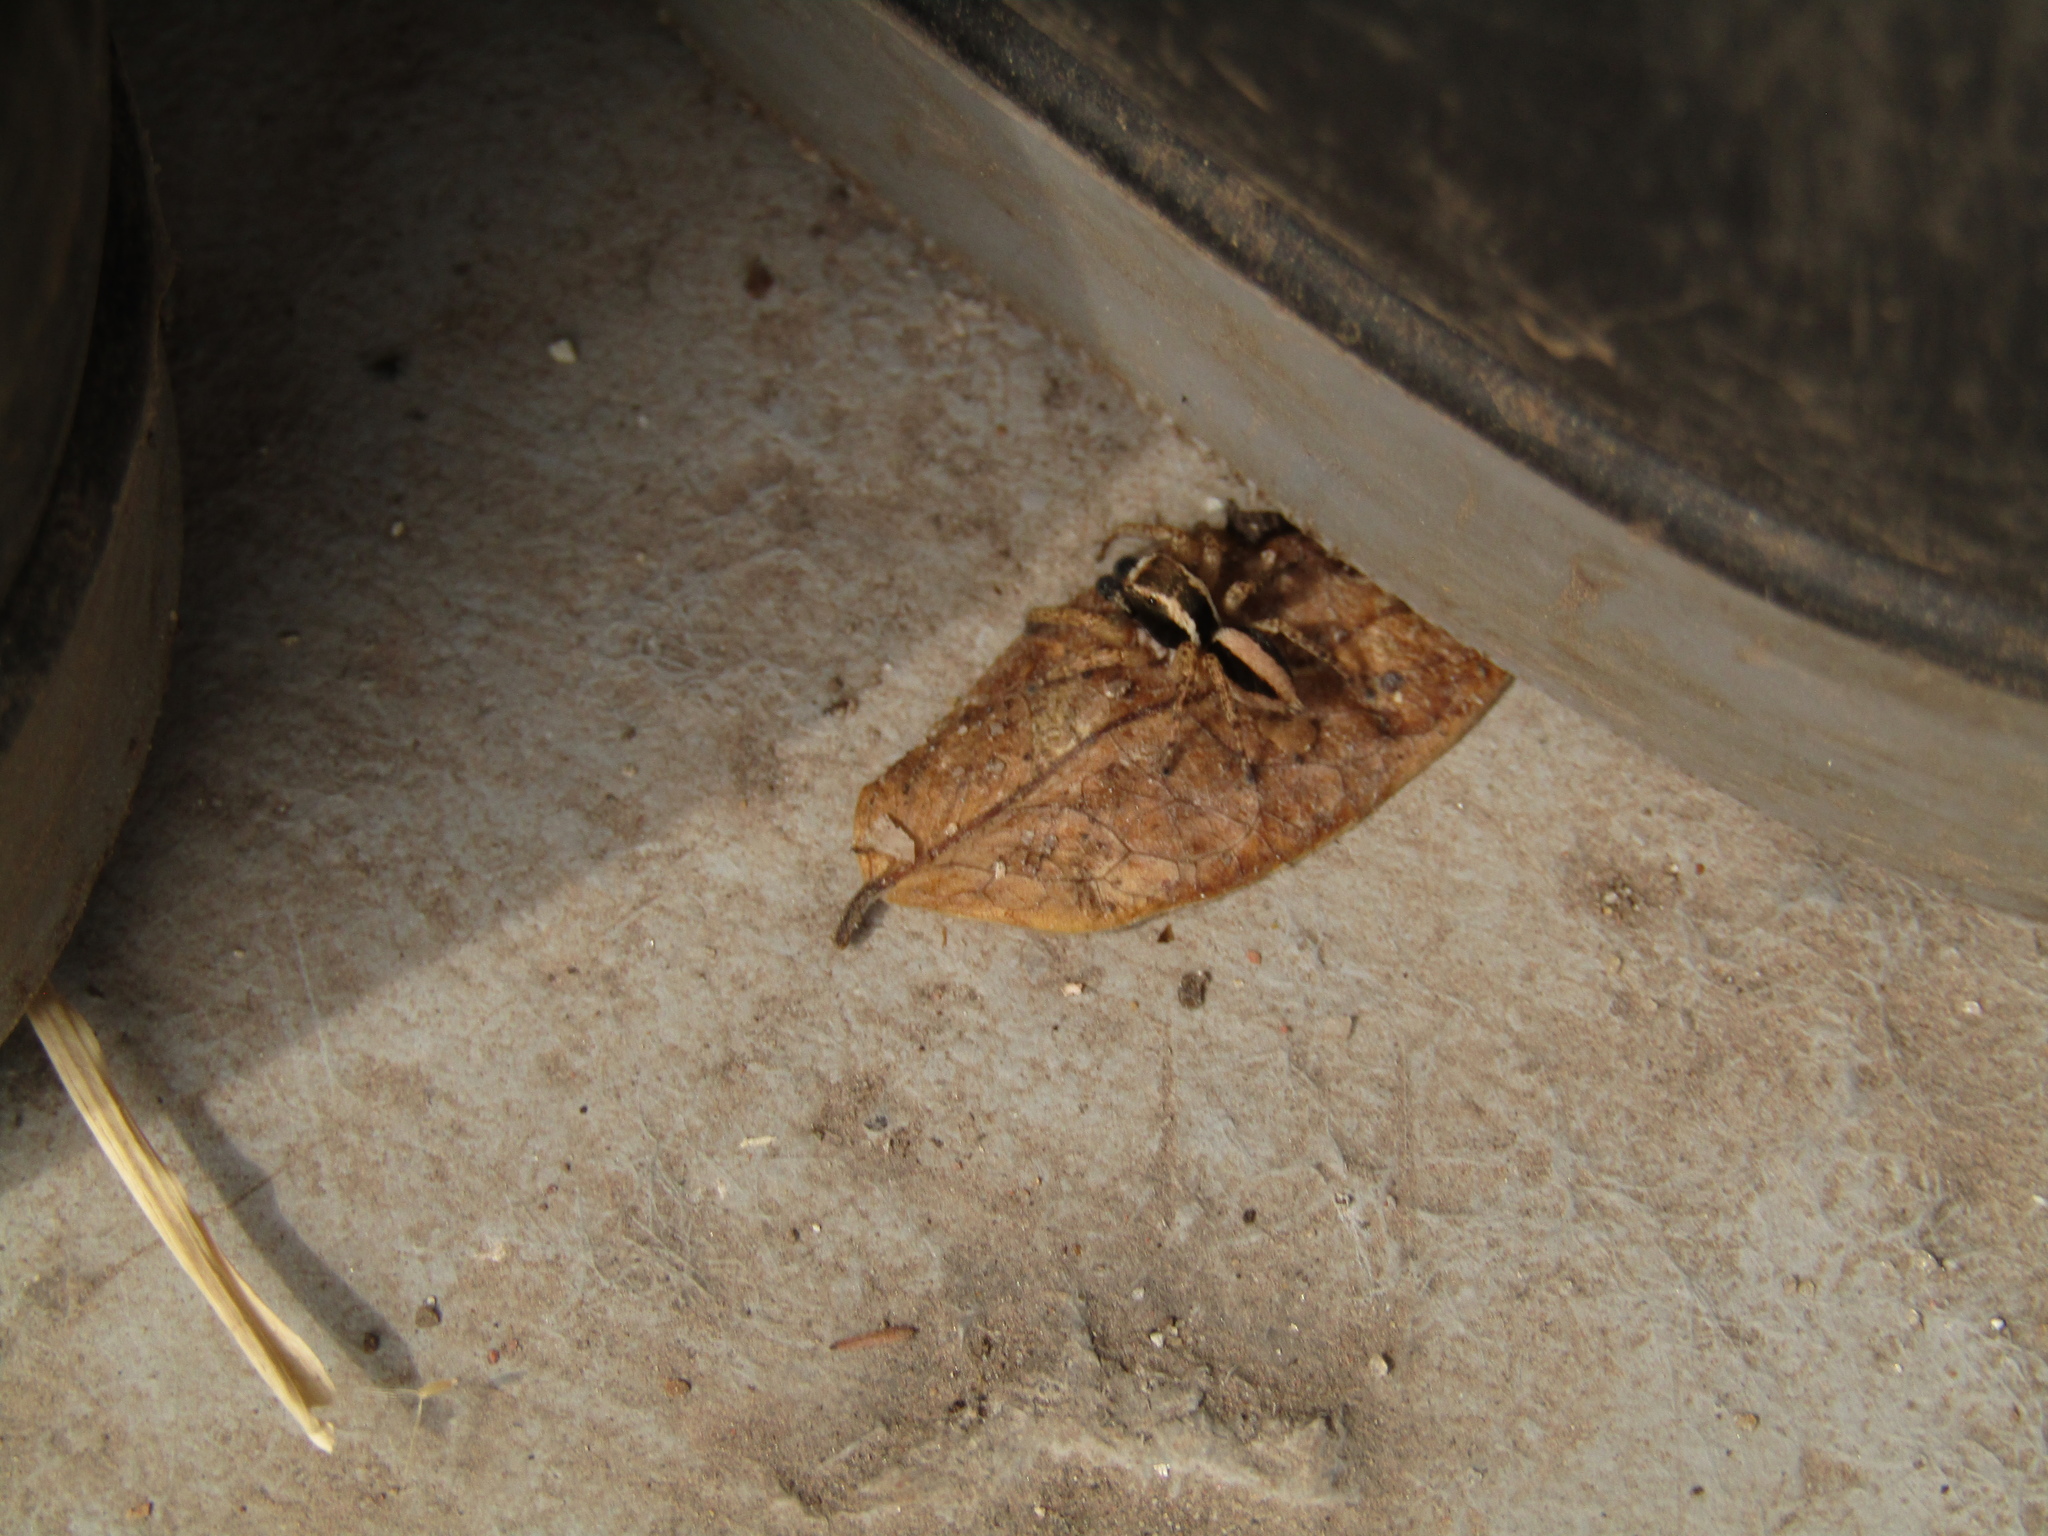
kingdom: Animalia
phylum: Arthropoda
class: Arachnida
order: Araneae
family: Salticidae
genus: Aphirape
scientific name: Aphirape
